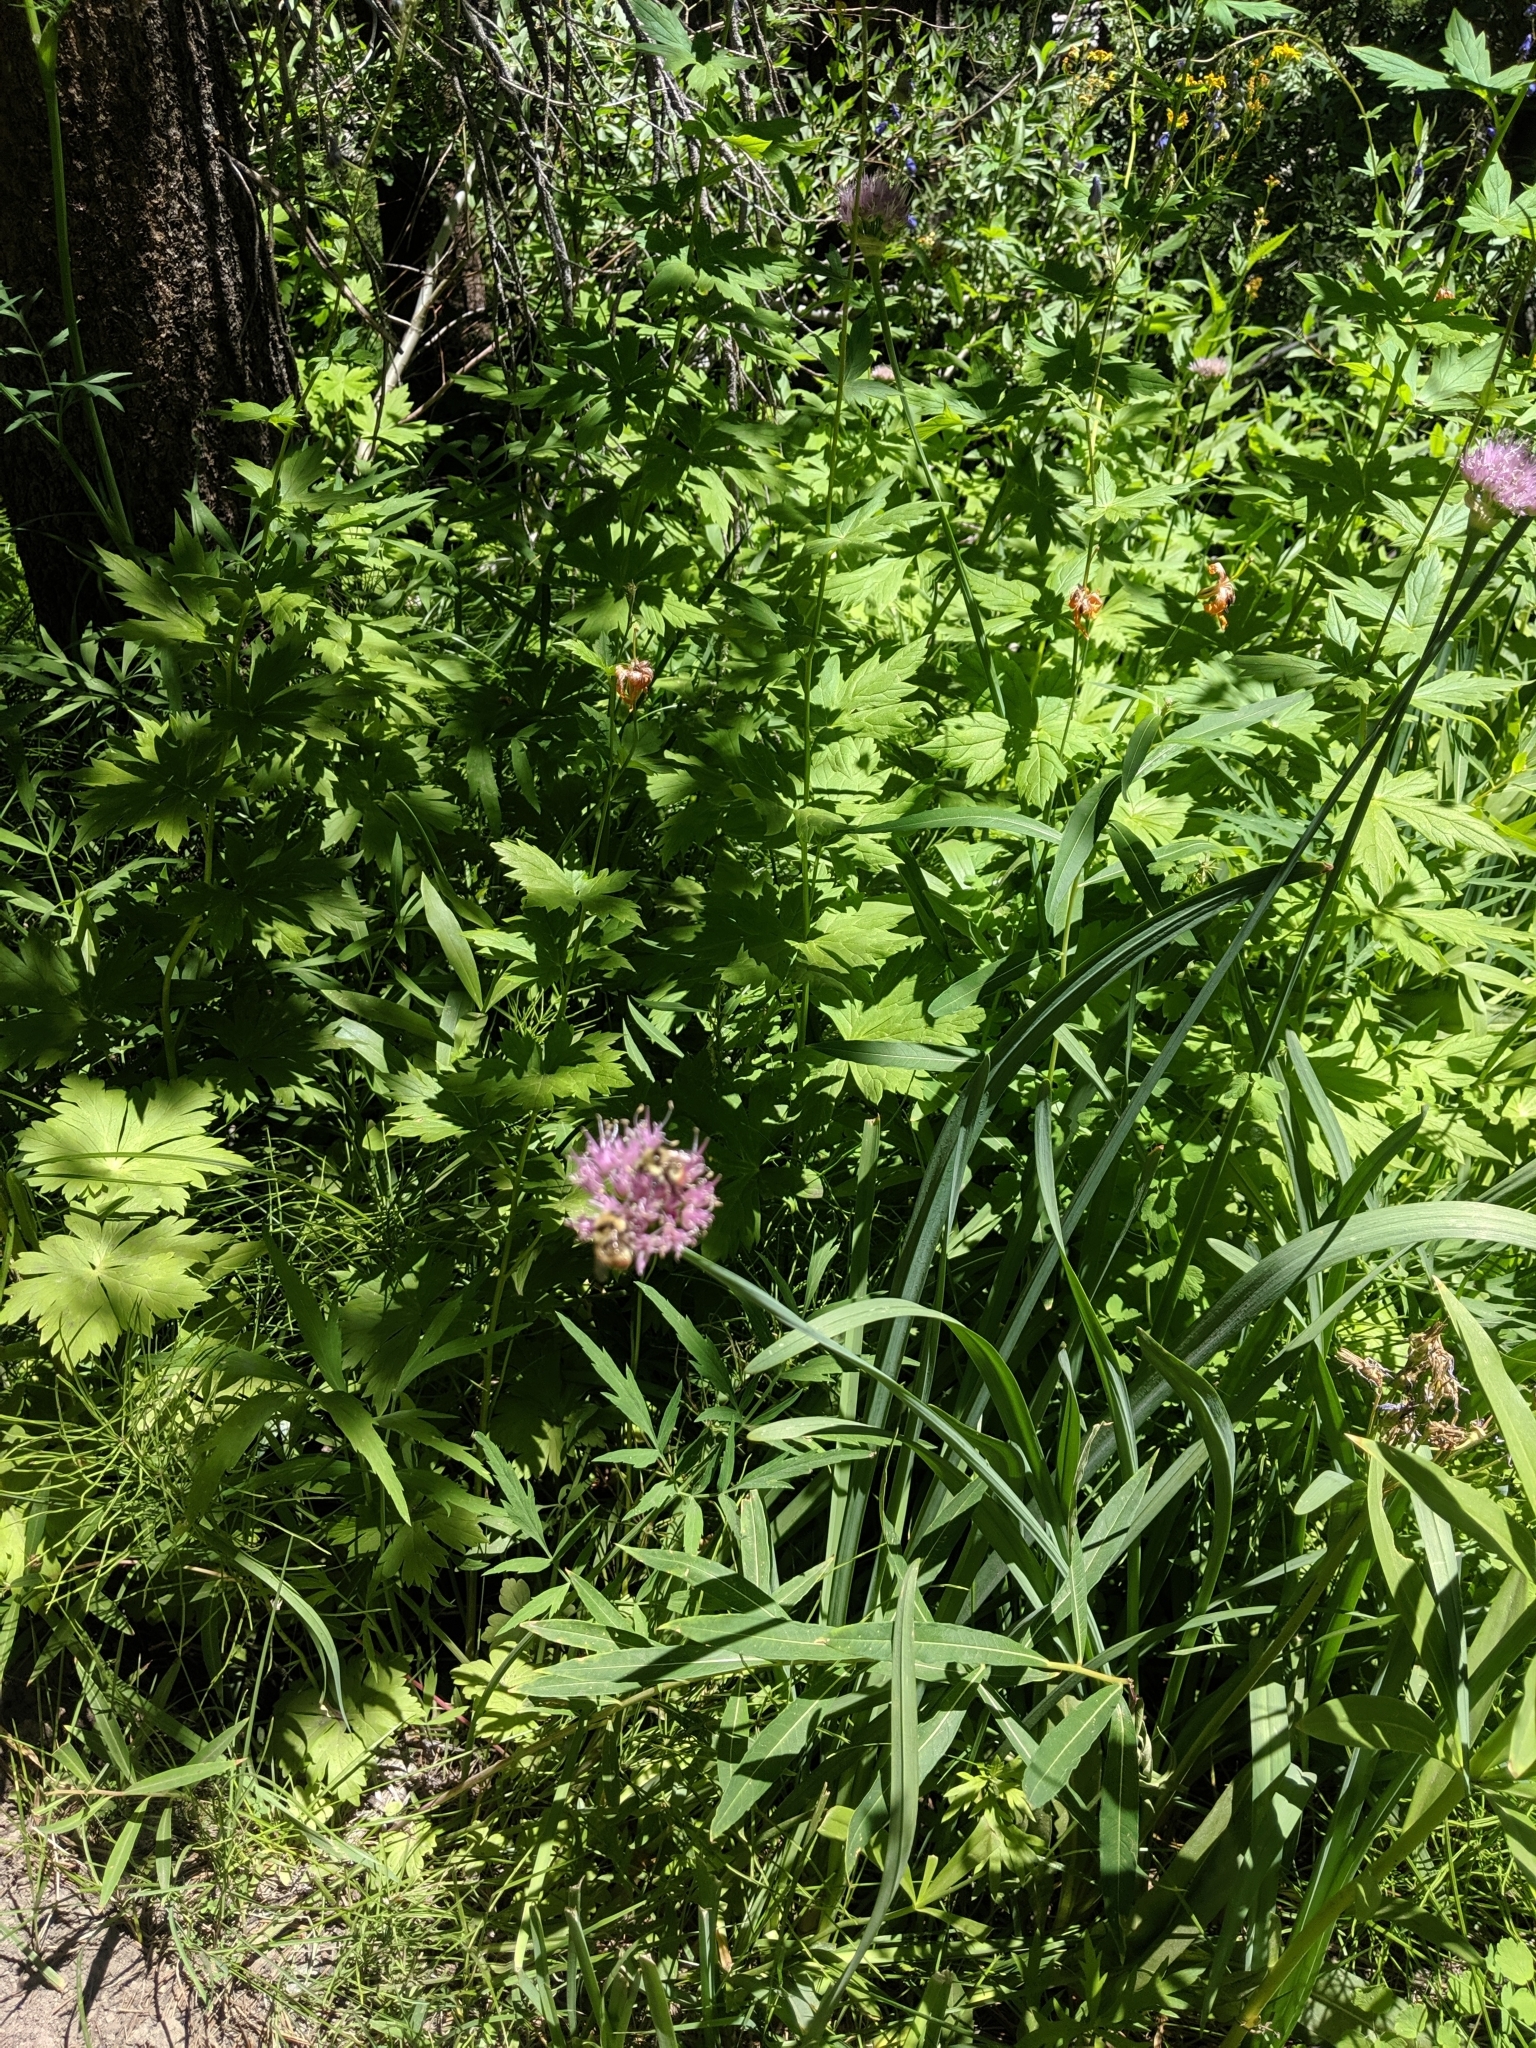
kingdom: Plantae
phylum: Tracheophyta
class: Liliopsida
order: Asparagales
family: Amaryllidaceae
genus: Allium
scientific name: Allium validum
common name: Pacific mountain onion
